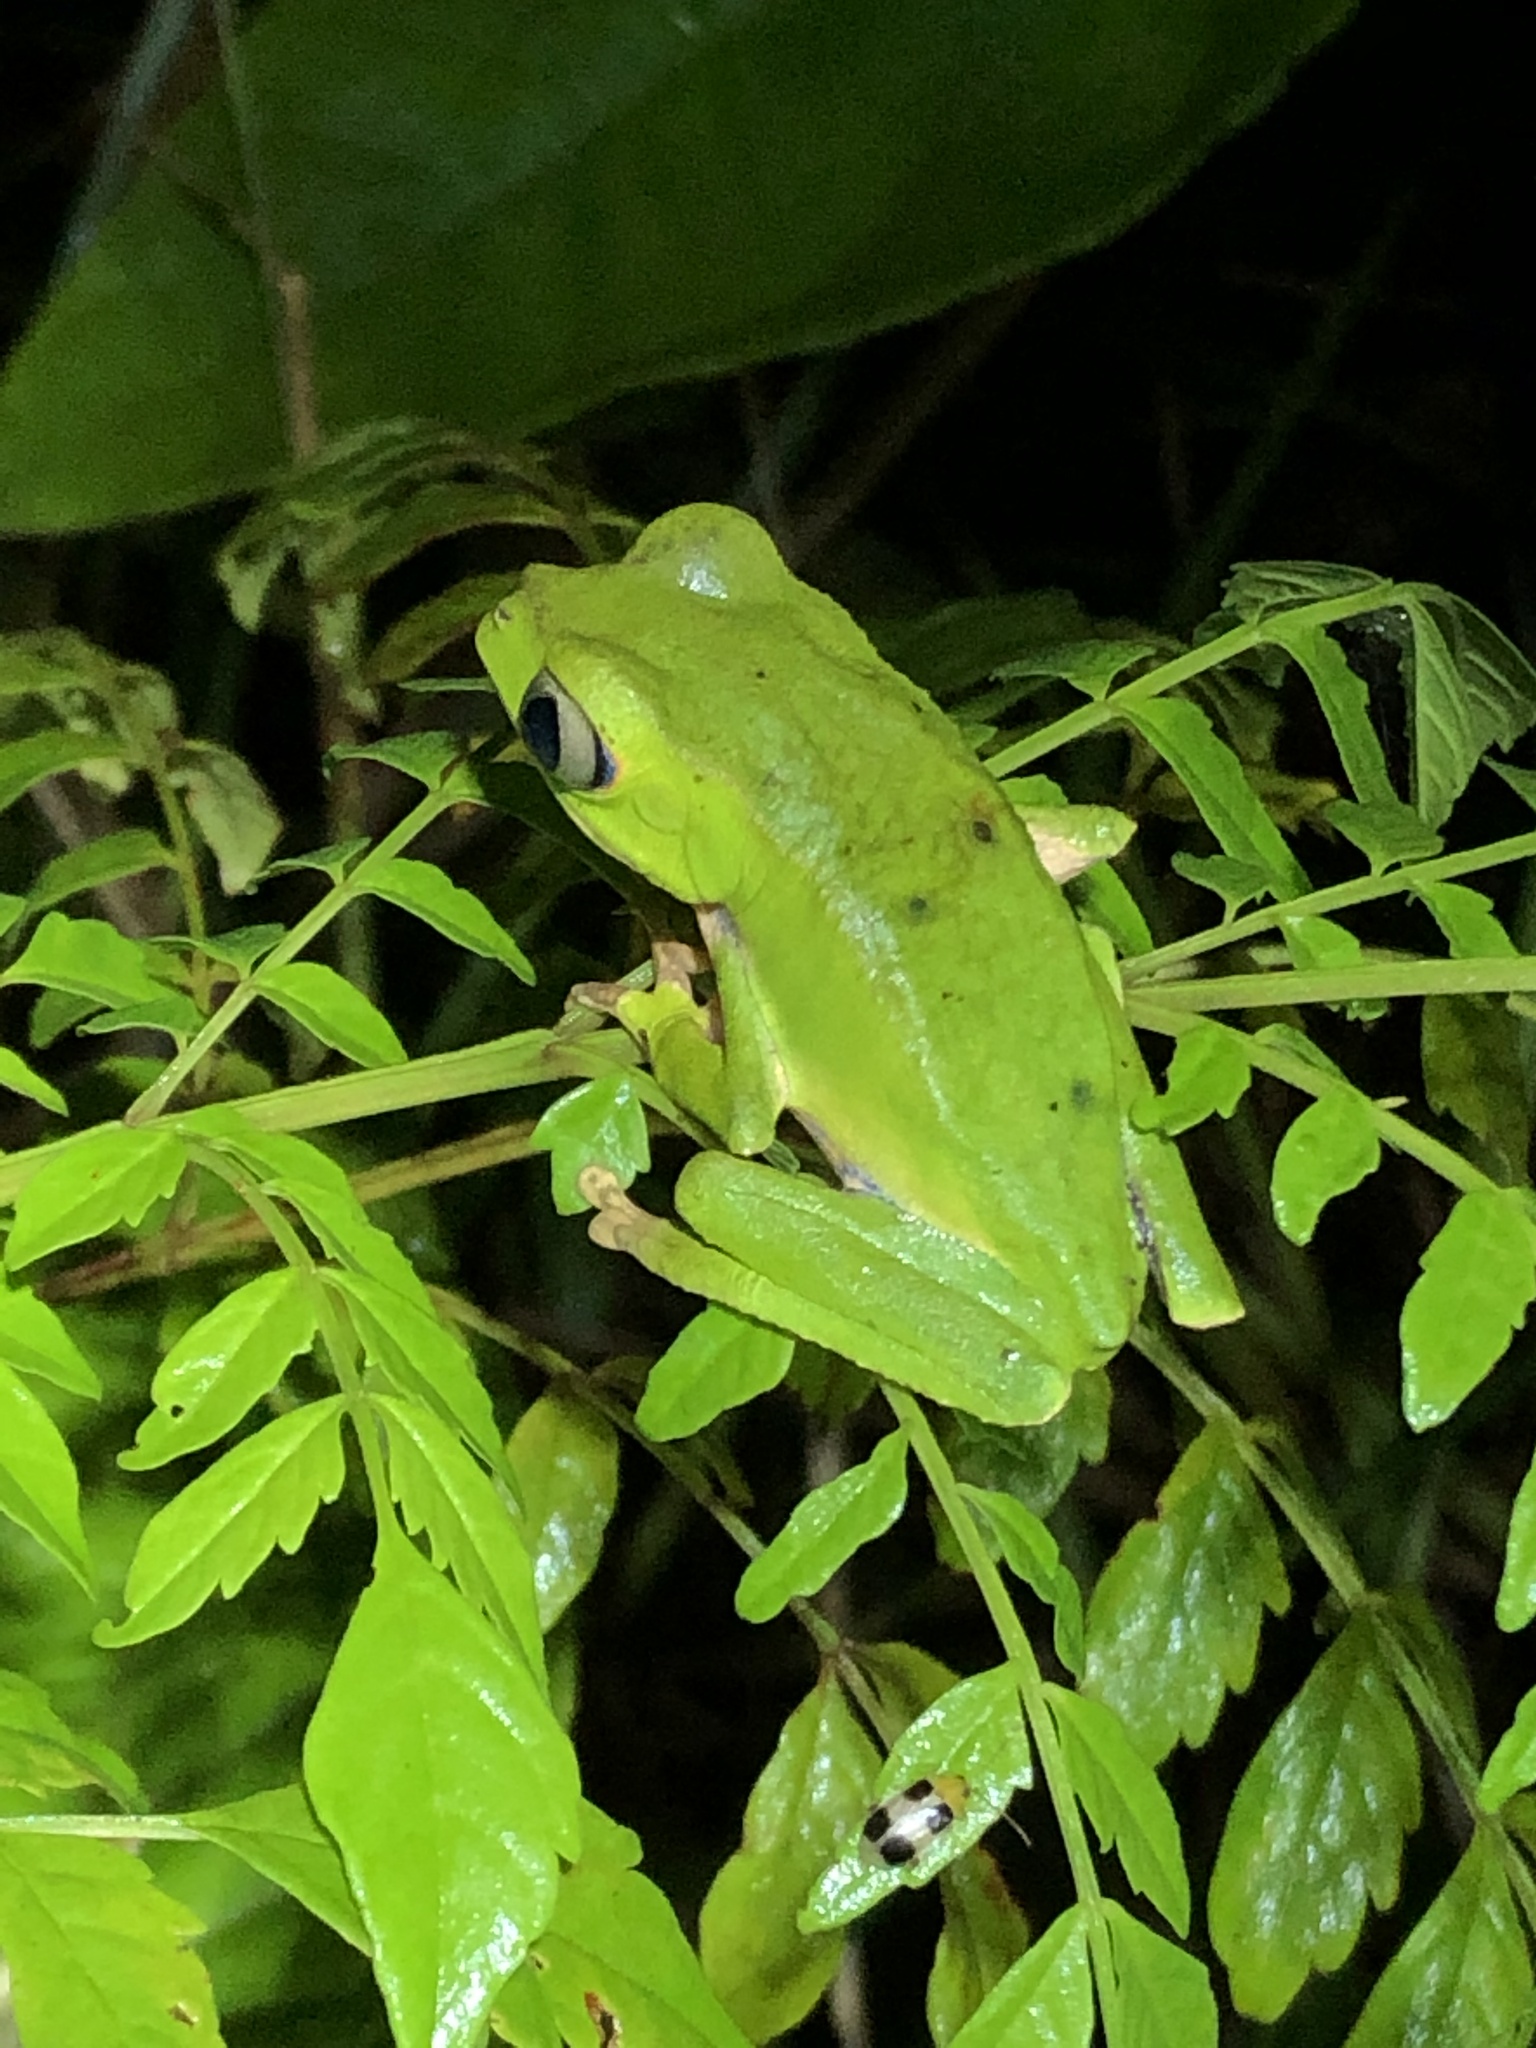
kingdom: Animalia
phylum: Chordata
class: Amphibia
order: Anura
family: Phyllomedusidae
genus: Callimedusa
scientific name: Callimedusa tomopterna
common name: Tiger-striped leaf frog
